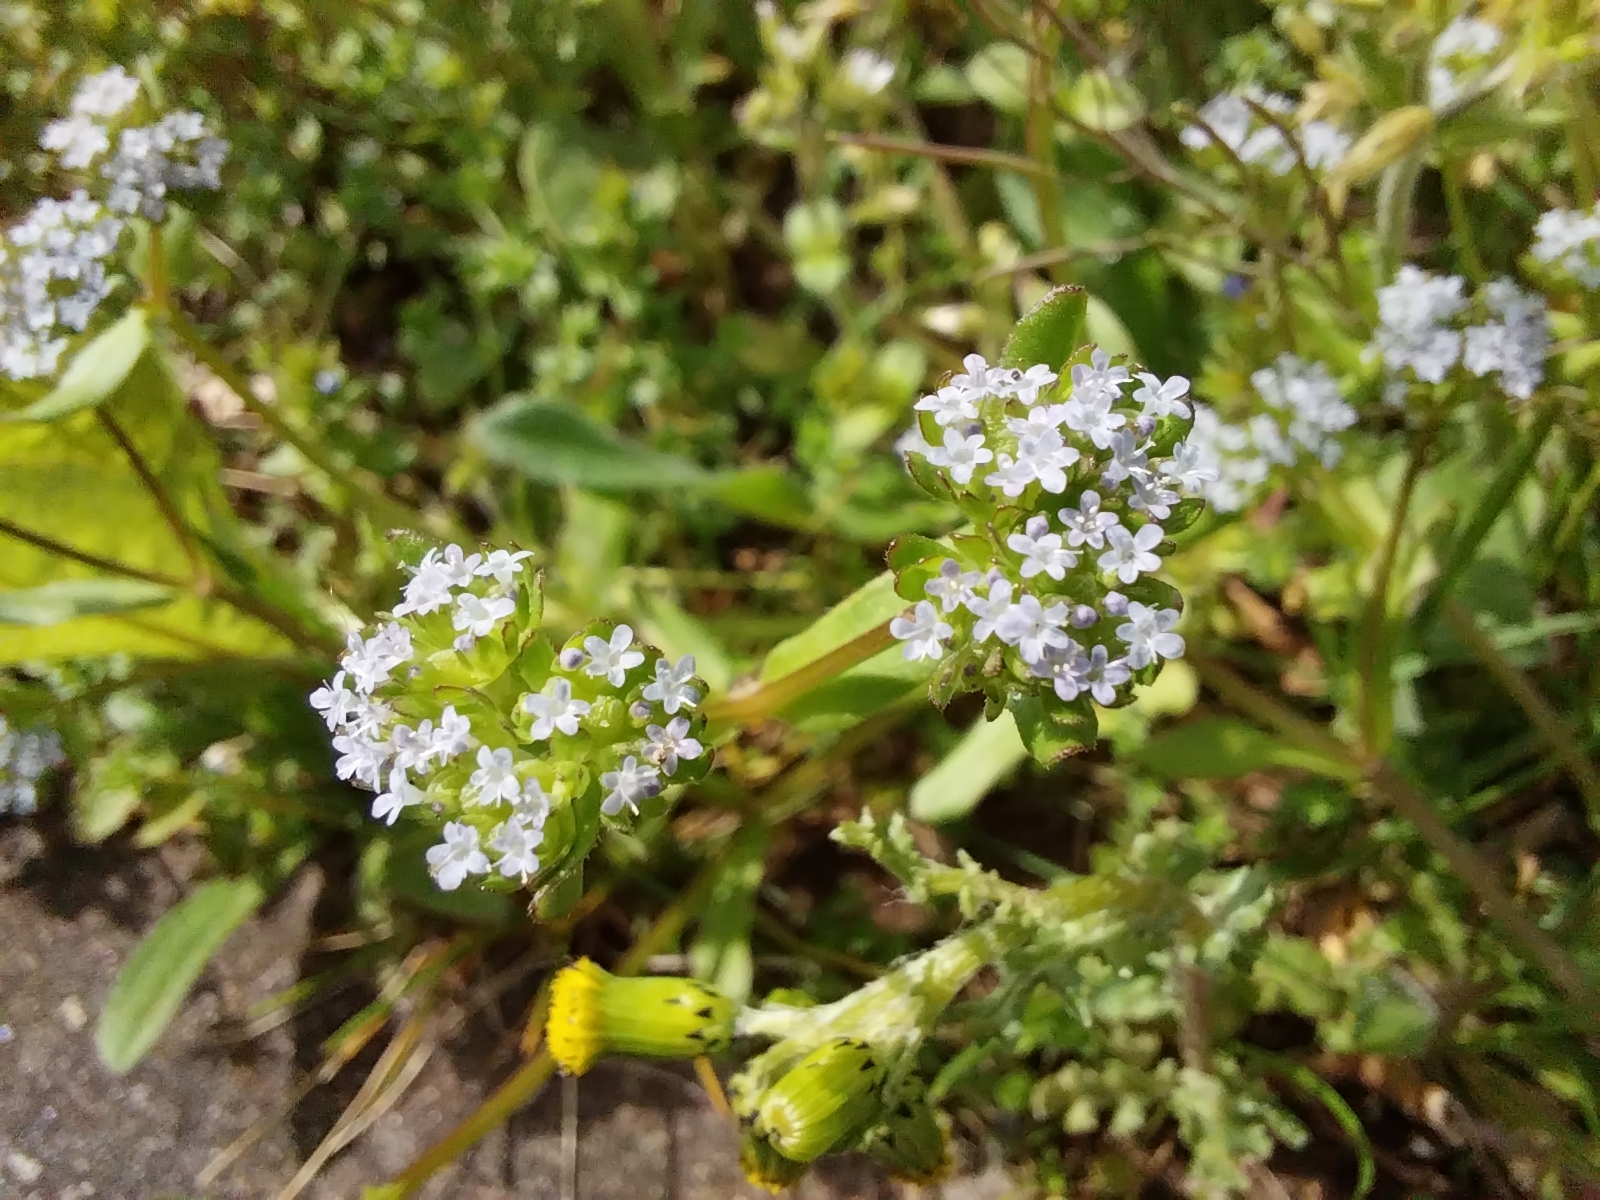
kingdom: Plantae
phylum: Tracheophyta
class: Magnoliopsida
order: Dipsacales
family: Caprifoliaceae
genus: Valerianella
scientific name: Valerianella locusta
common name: Common cornsalad
